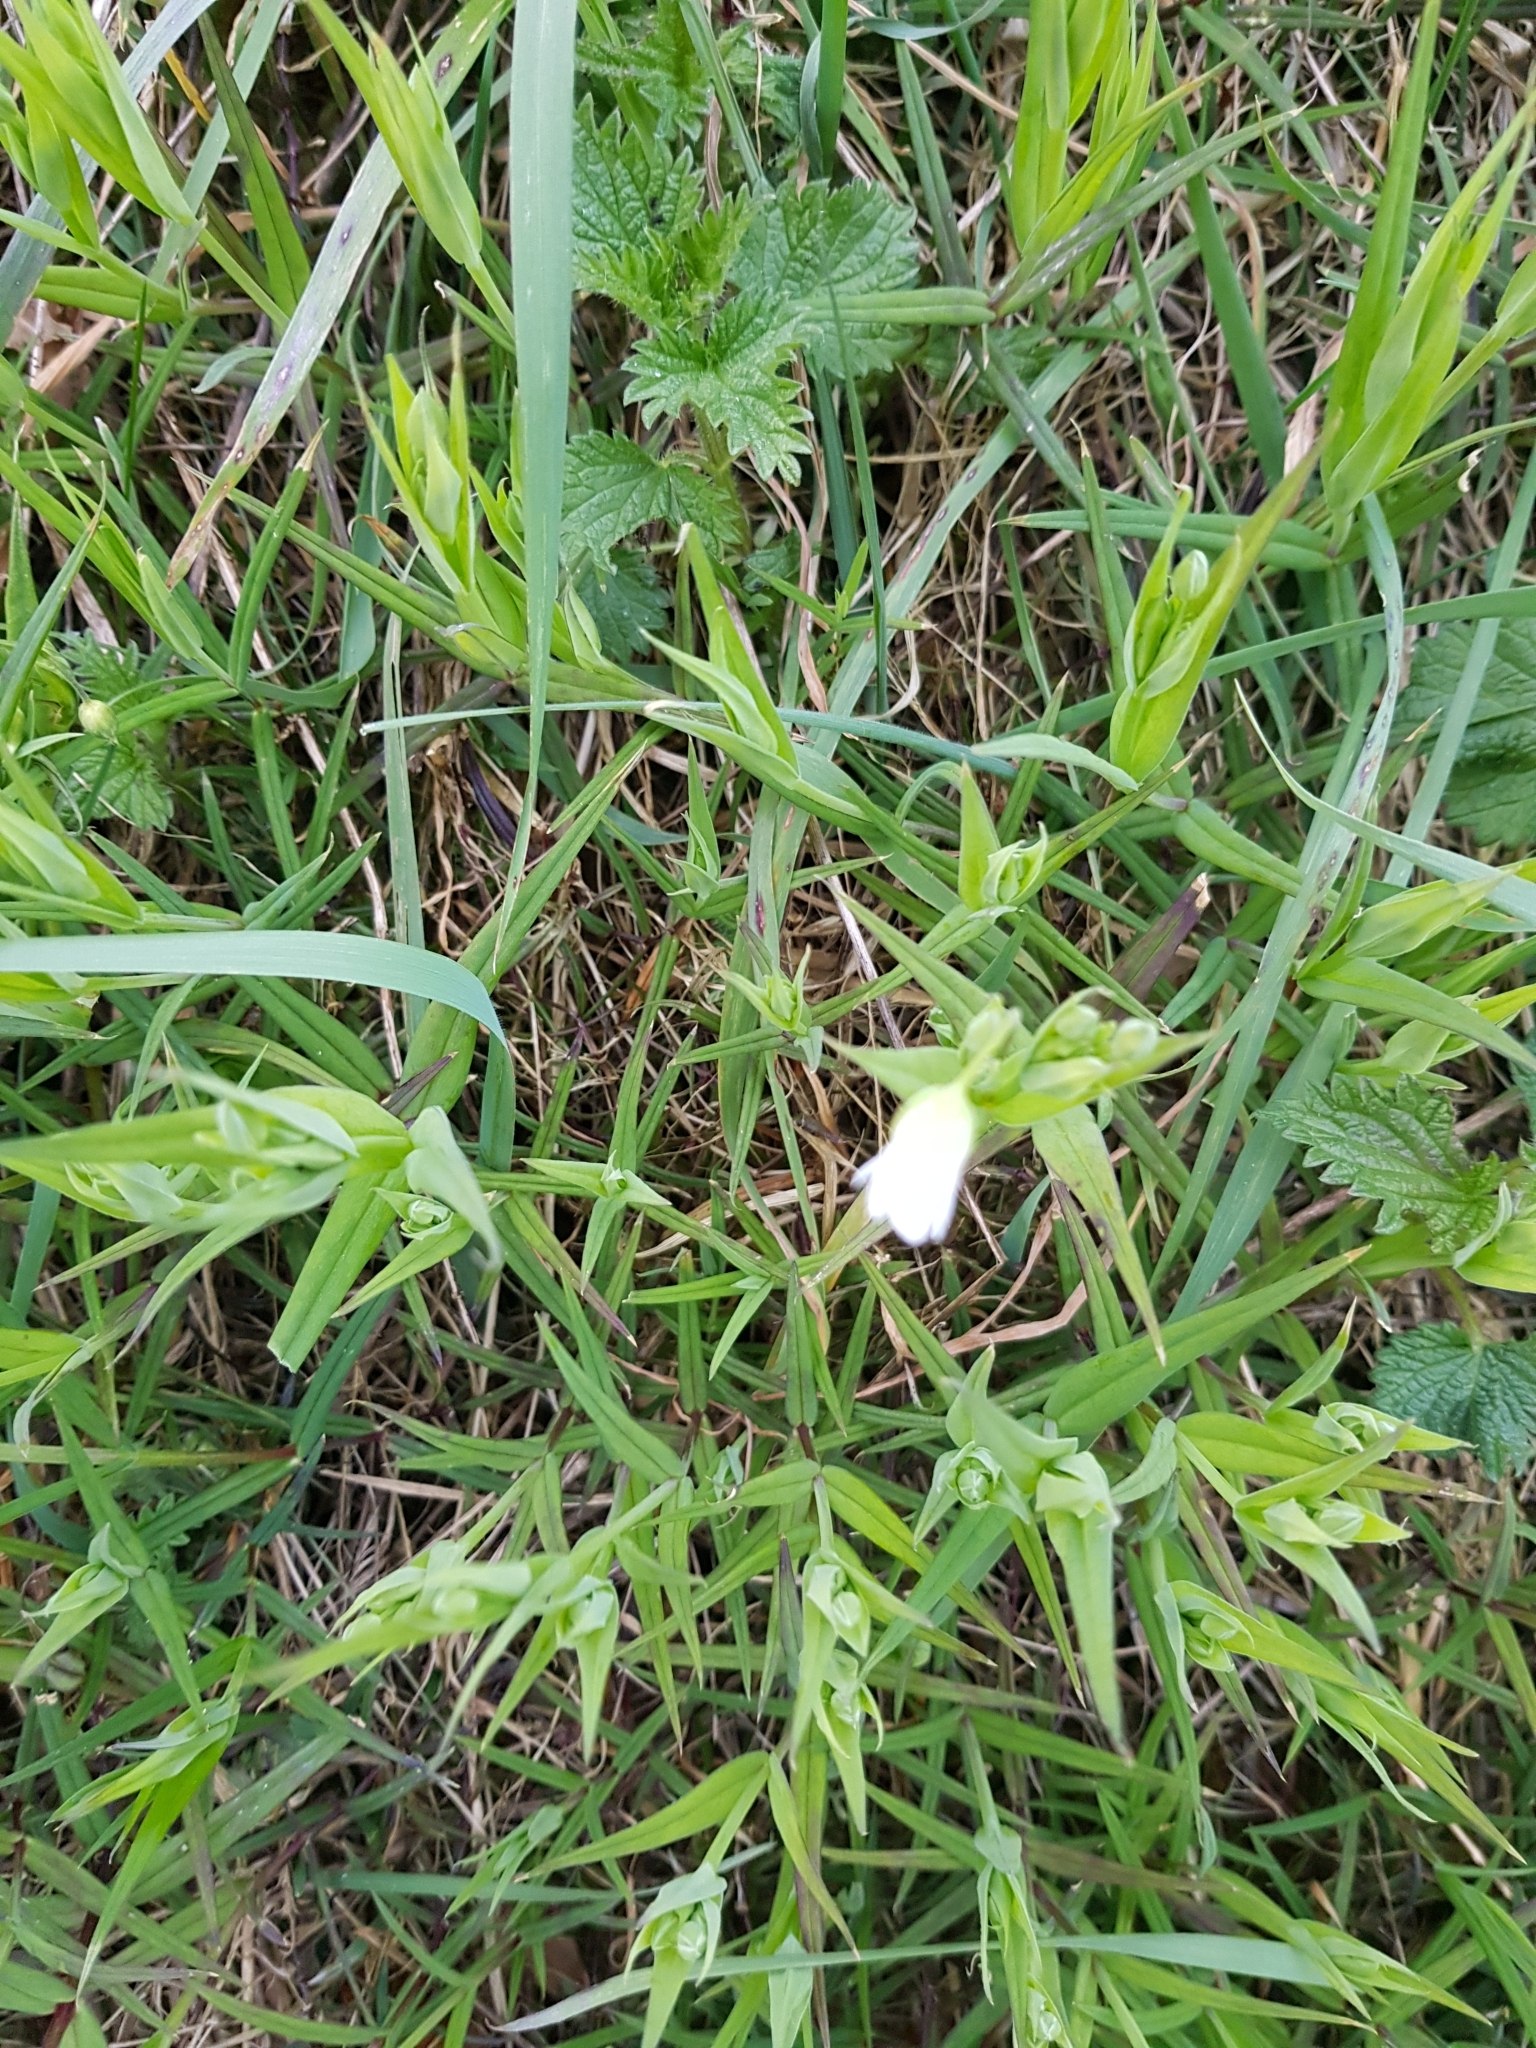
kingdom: Plantae
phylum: Tracheophyta
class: Magnoliopsida
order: Caryophyllales
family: Caryophyllaceae
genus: Rabelera
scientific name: Rabelera holostea
